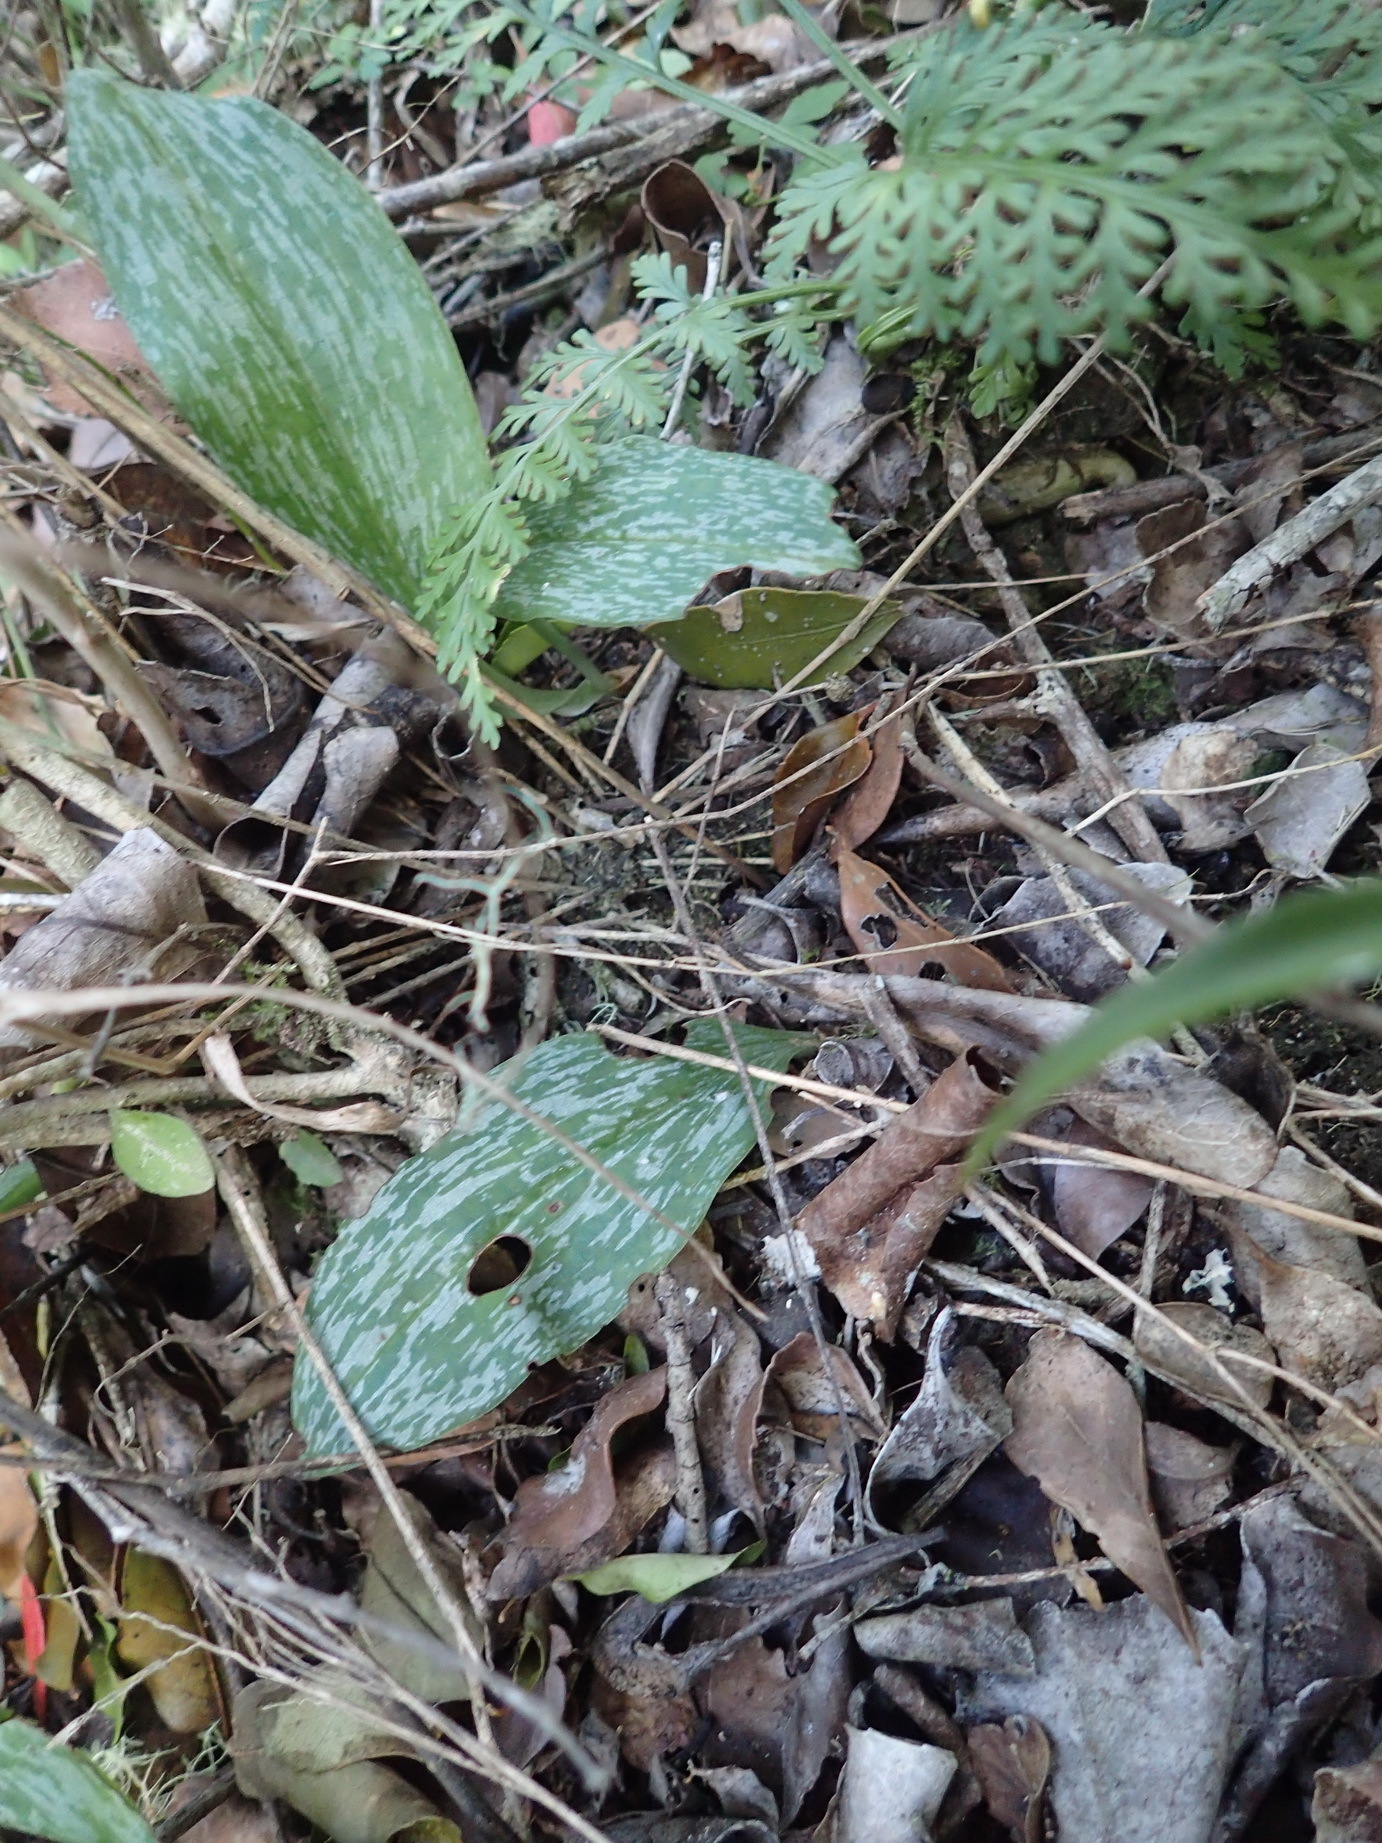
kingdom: Plantae
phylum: Tracheophyta
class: Liliopsida
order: Asparagales
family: Orchidaceae
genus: Habenaria
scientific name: Habenaria arenaria
